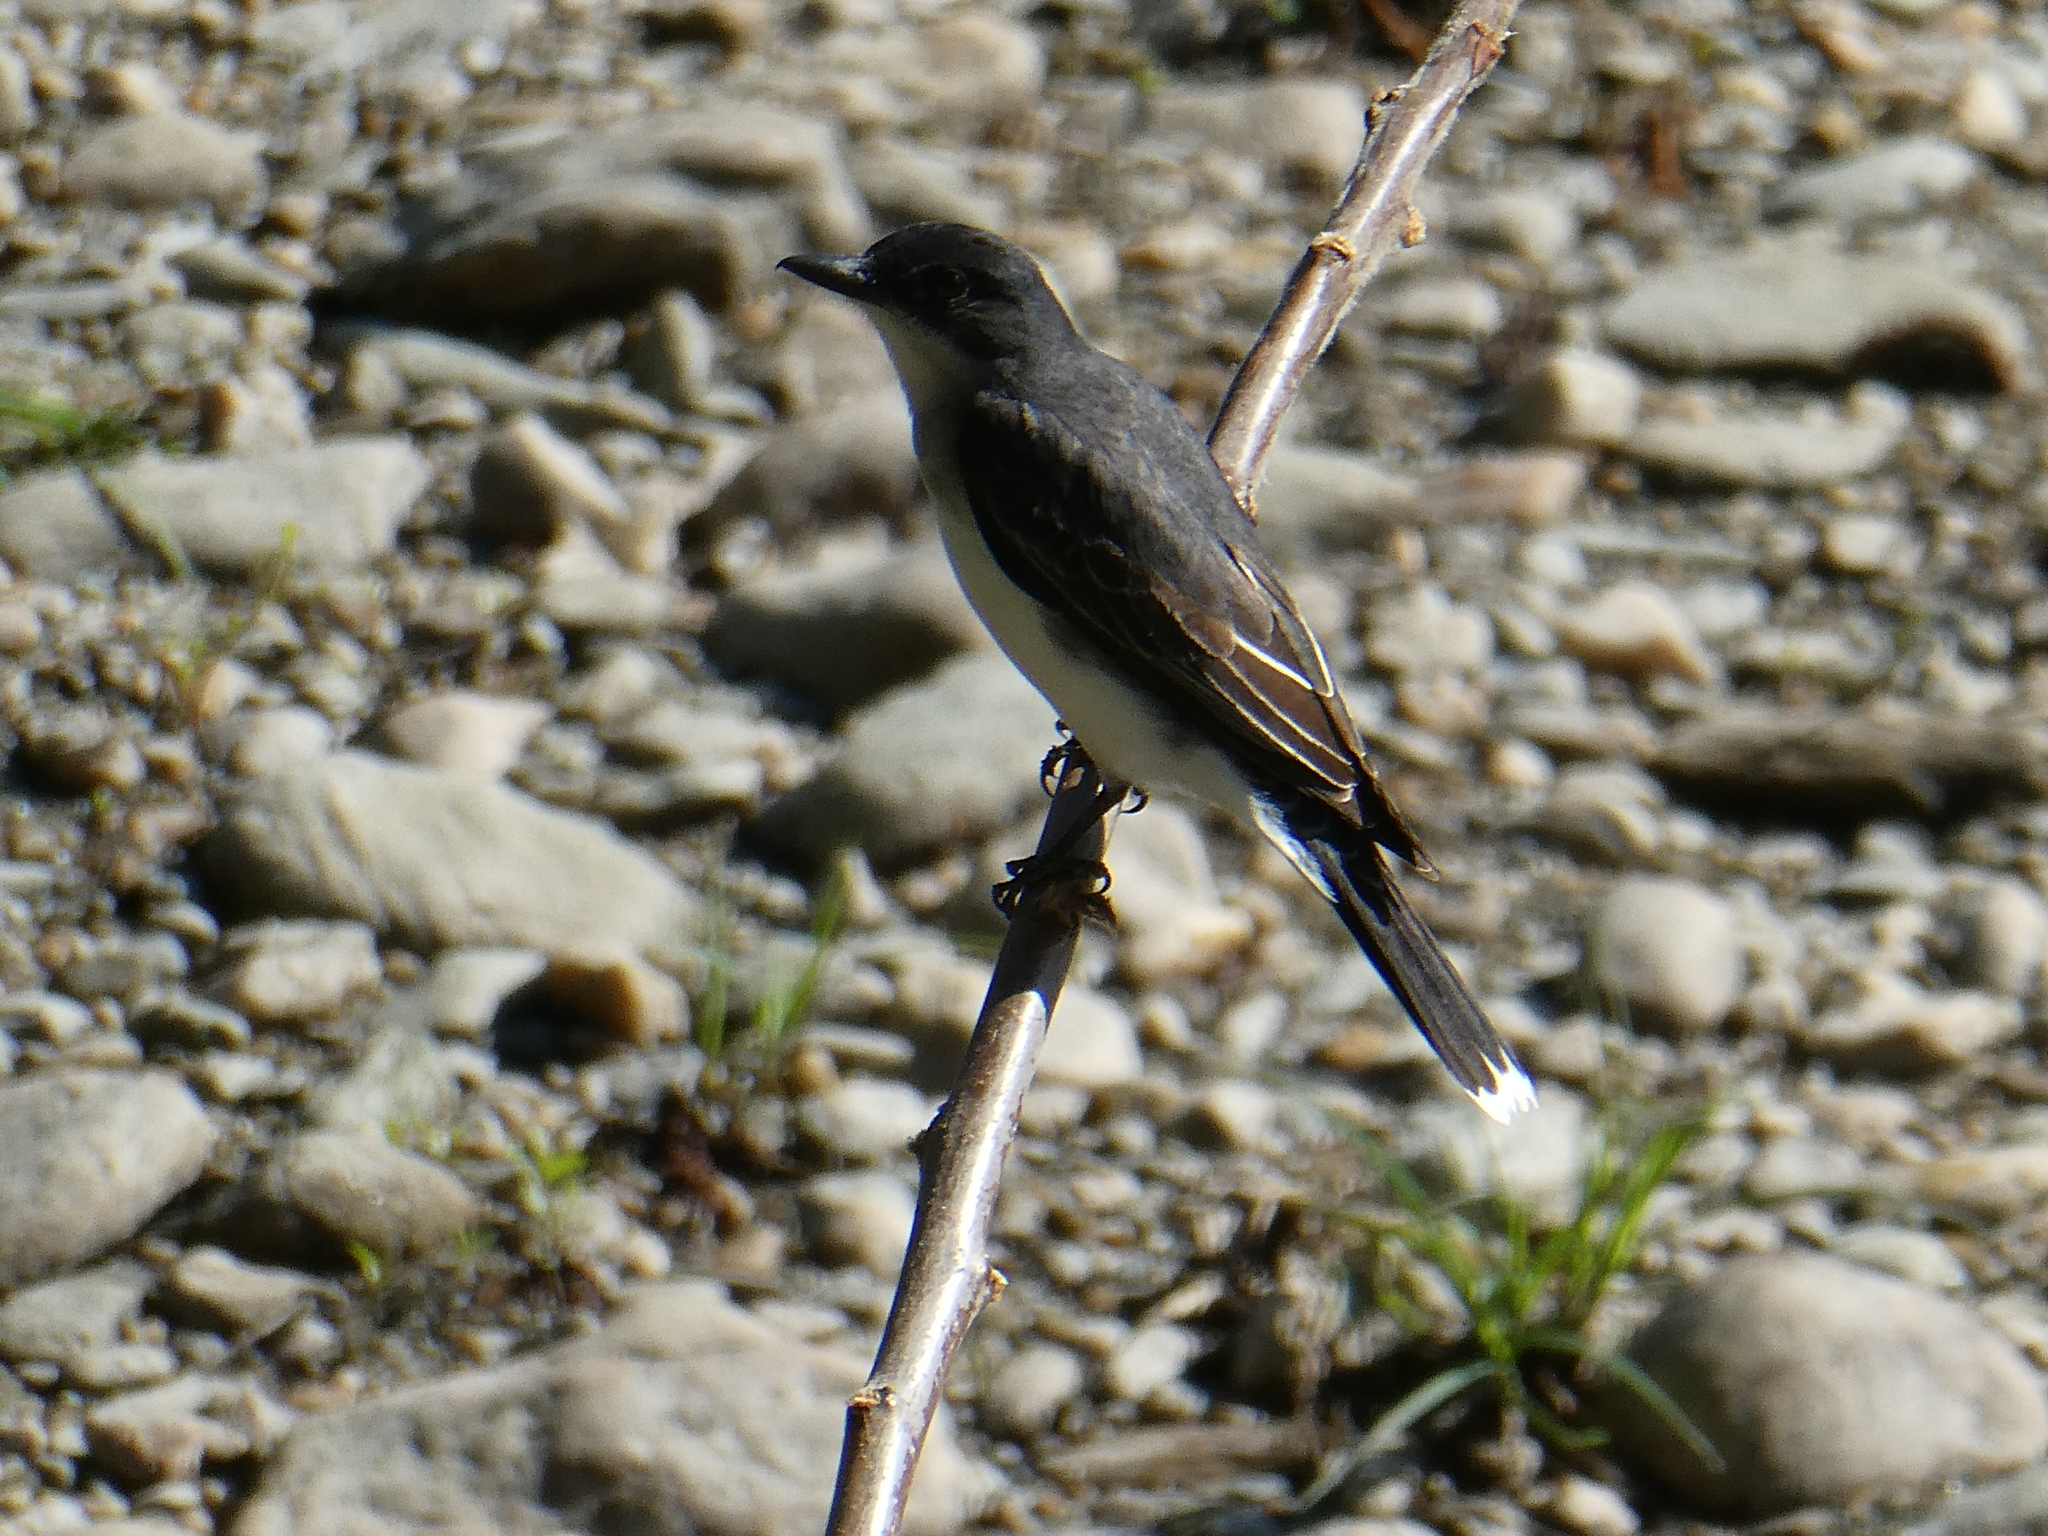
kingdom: Animalia
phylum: Chordata
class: Aves
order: Passeriformes
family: Tyrannidae
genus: Tyrannus
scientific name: Tyrannus tyrannus
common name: Eastern kingbird
